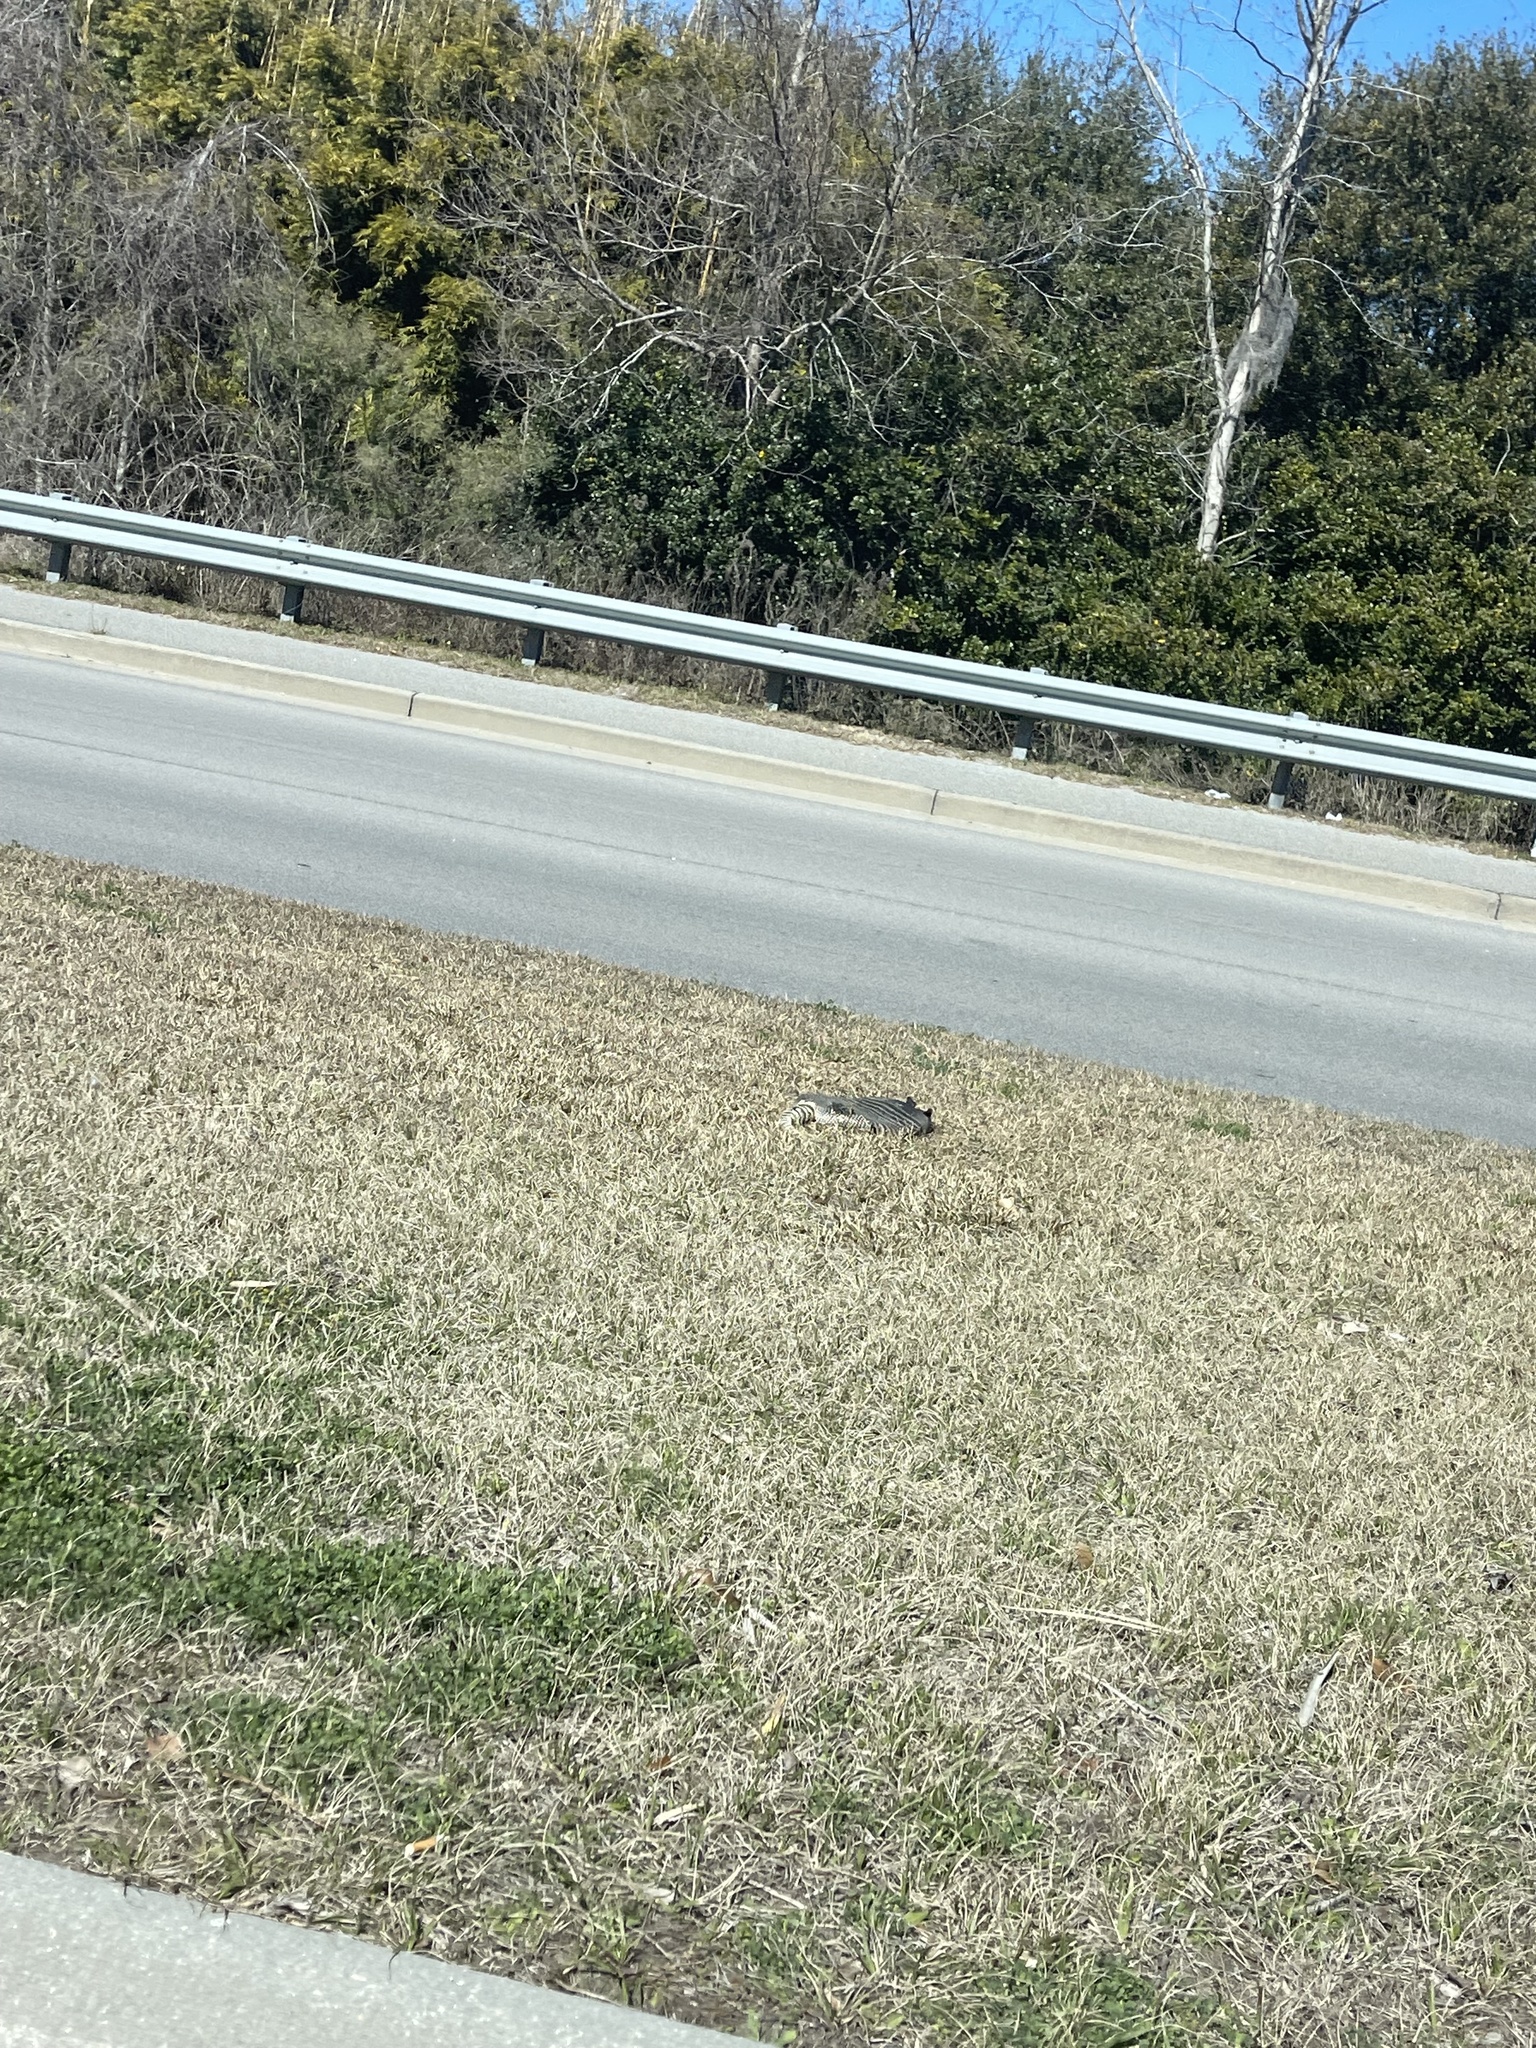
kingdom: Animalia
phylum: Chordata
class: Mammalia
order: Cingulata
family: Dasypodidae
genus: Dasypus
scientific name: Dasypus novemcinctus
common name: Nine-banded armadillo
